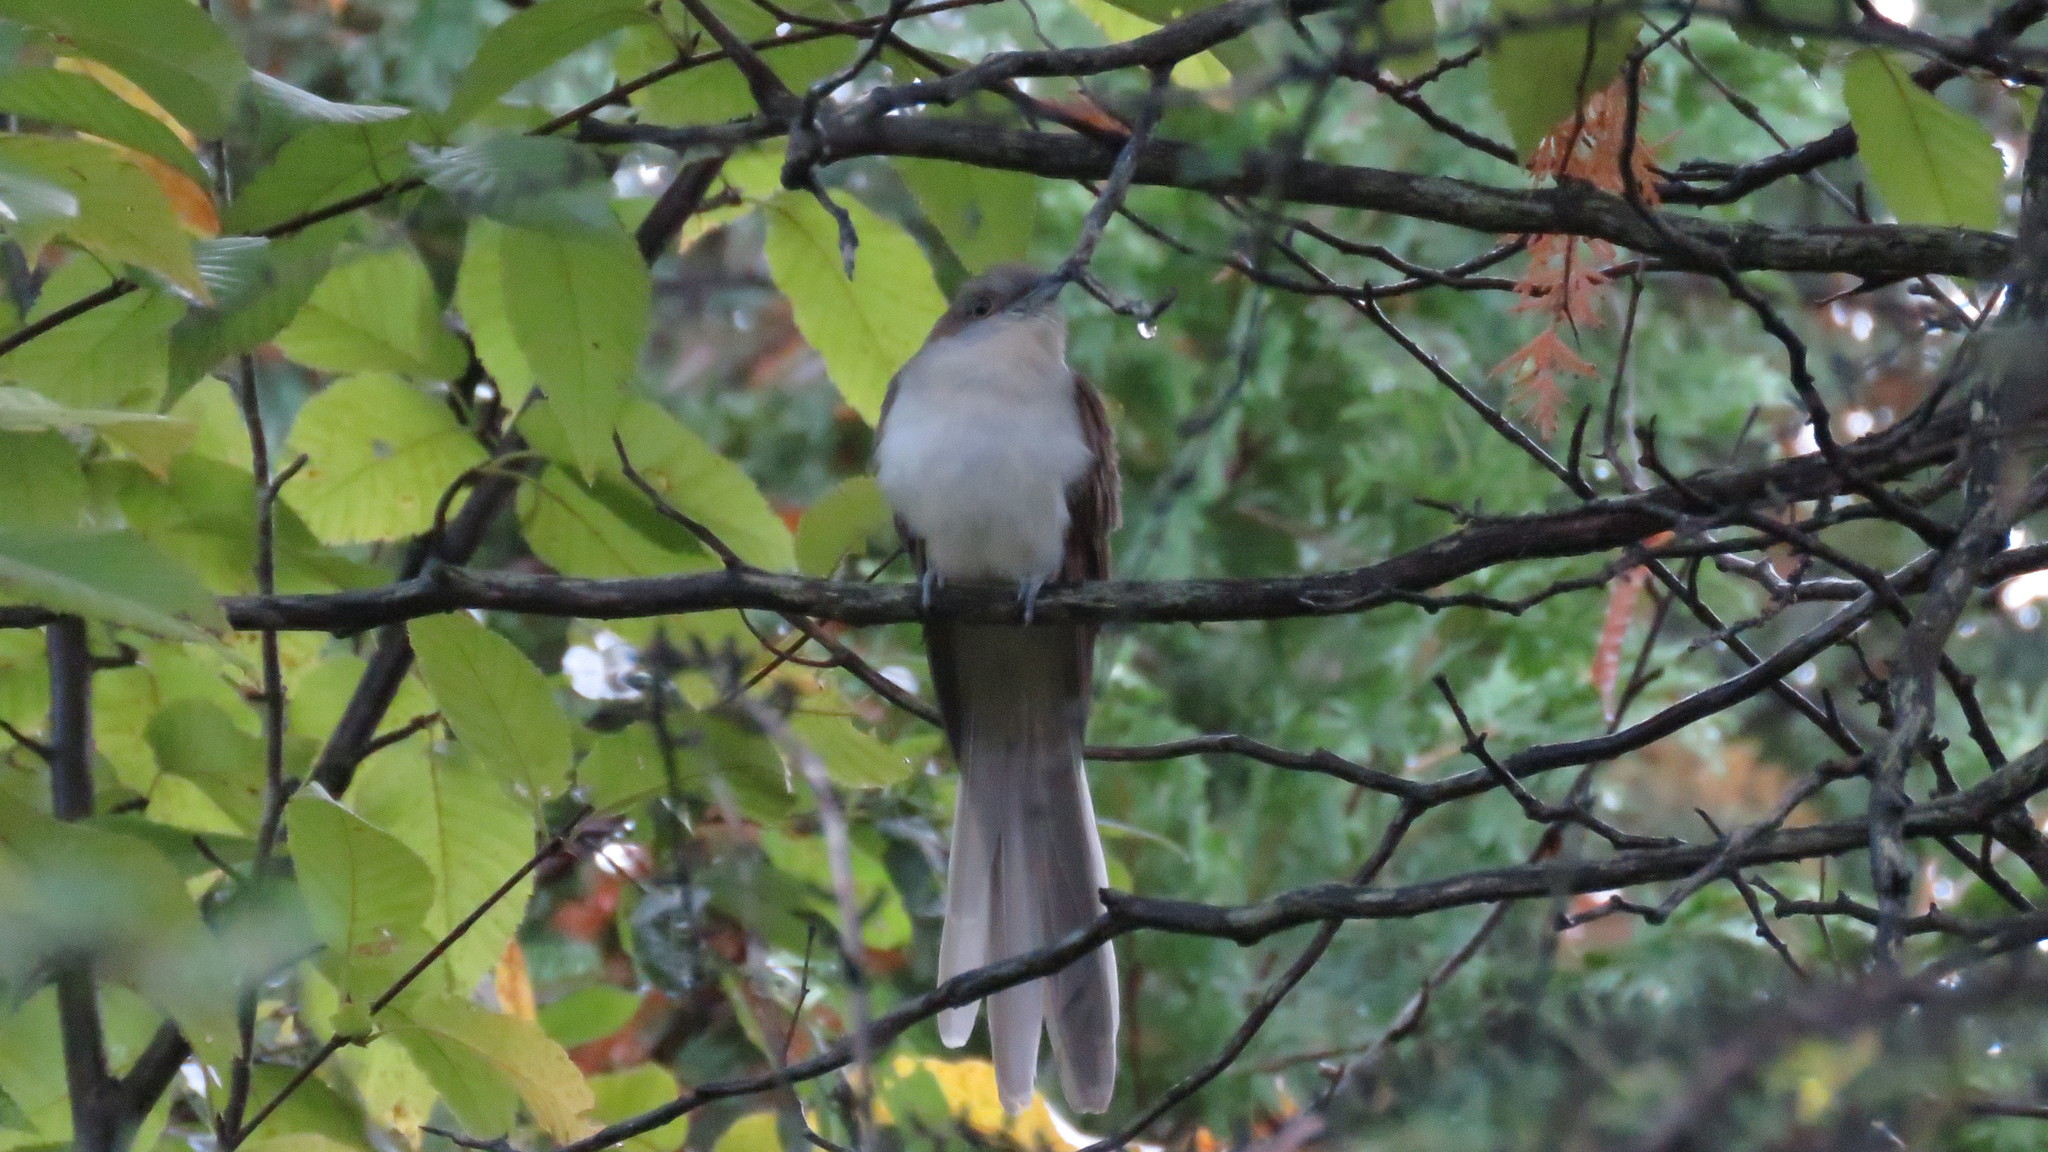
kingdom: Animalia
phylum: Chordata
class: Aves
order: Cuculiformes
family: Cuculidae
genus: Coccyzus
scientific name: Coccyzus erythropthalmus
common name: Black-billed cuckoo
